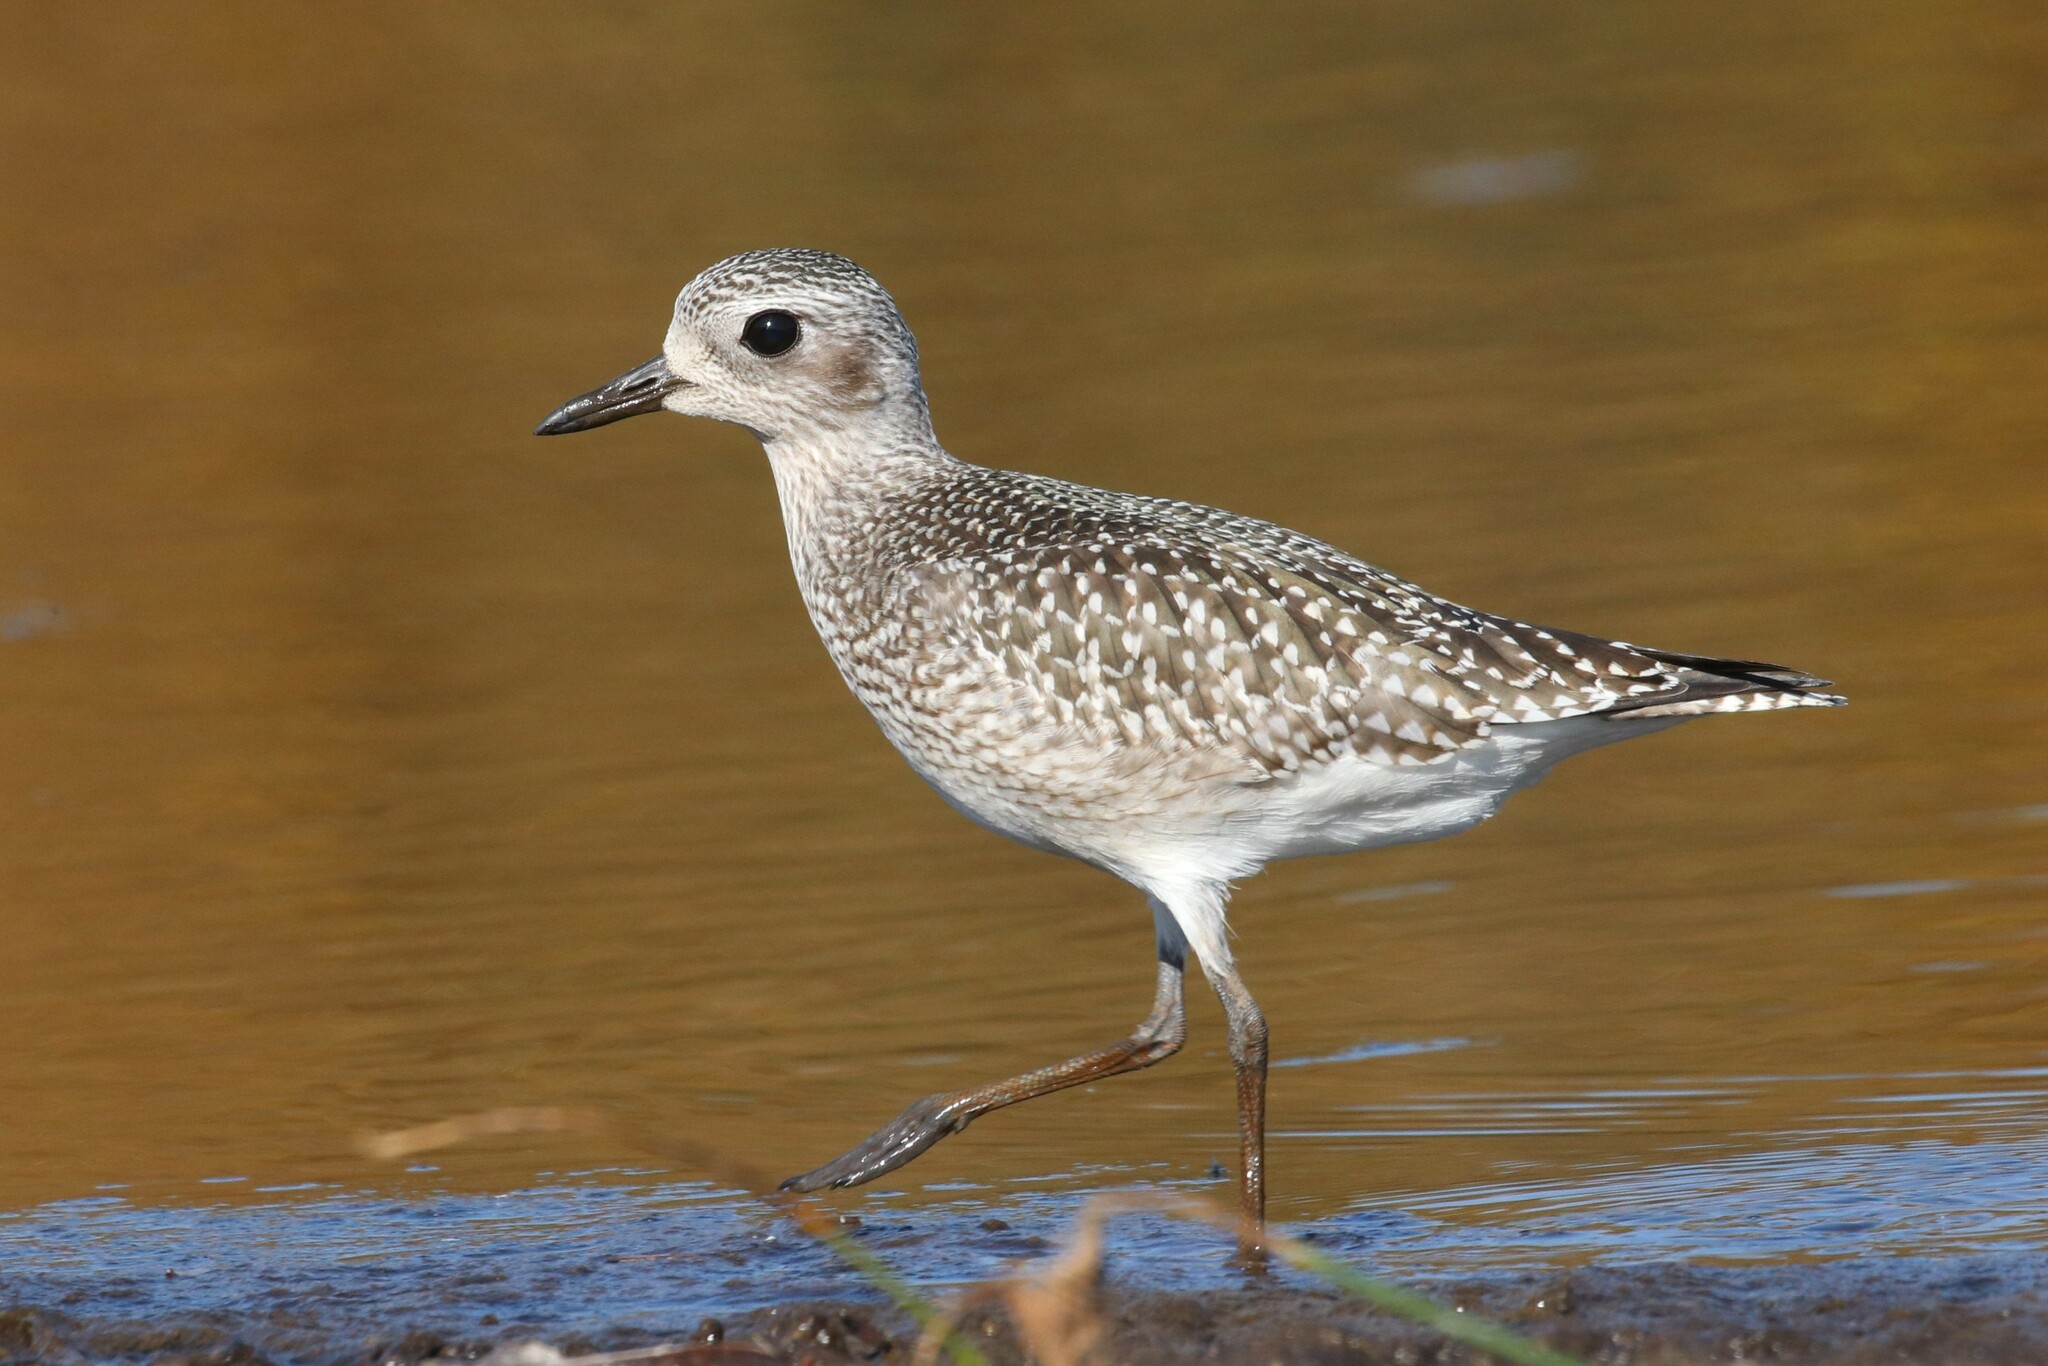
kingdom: Animalia
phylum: Chordata
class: Aves
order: Charadriiformes
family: Charadriidae
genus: Pluvialis
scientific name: Pluvialis squatarola
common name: Grey plover
